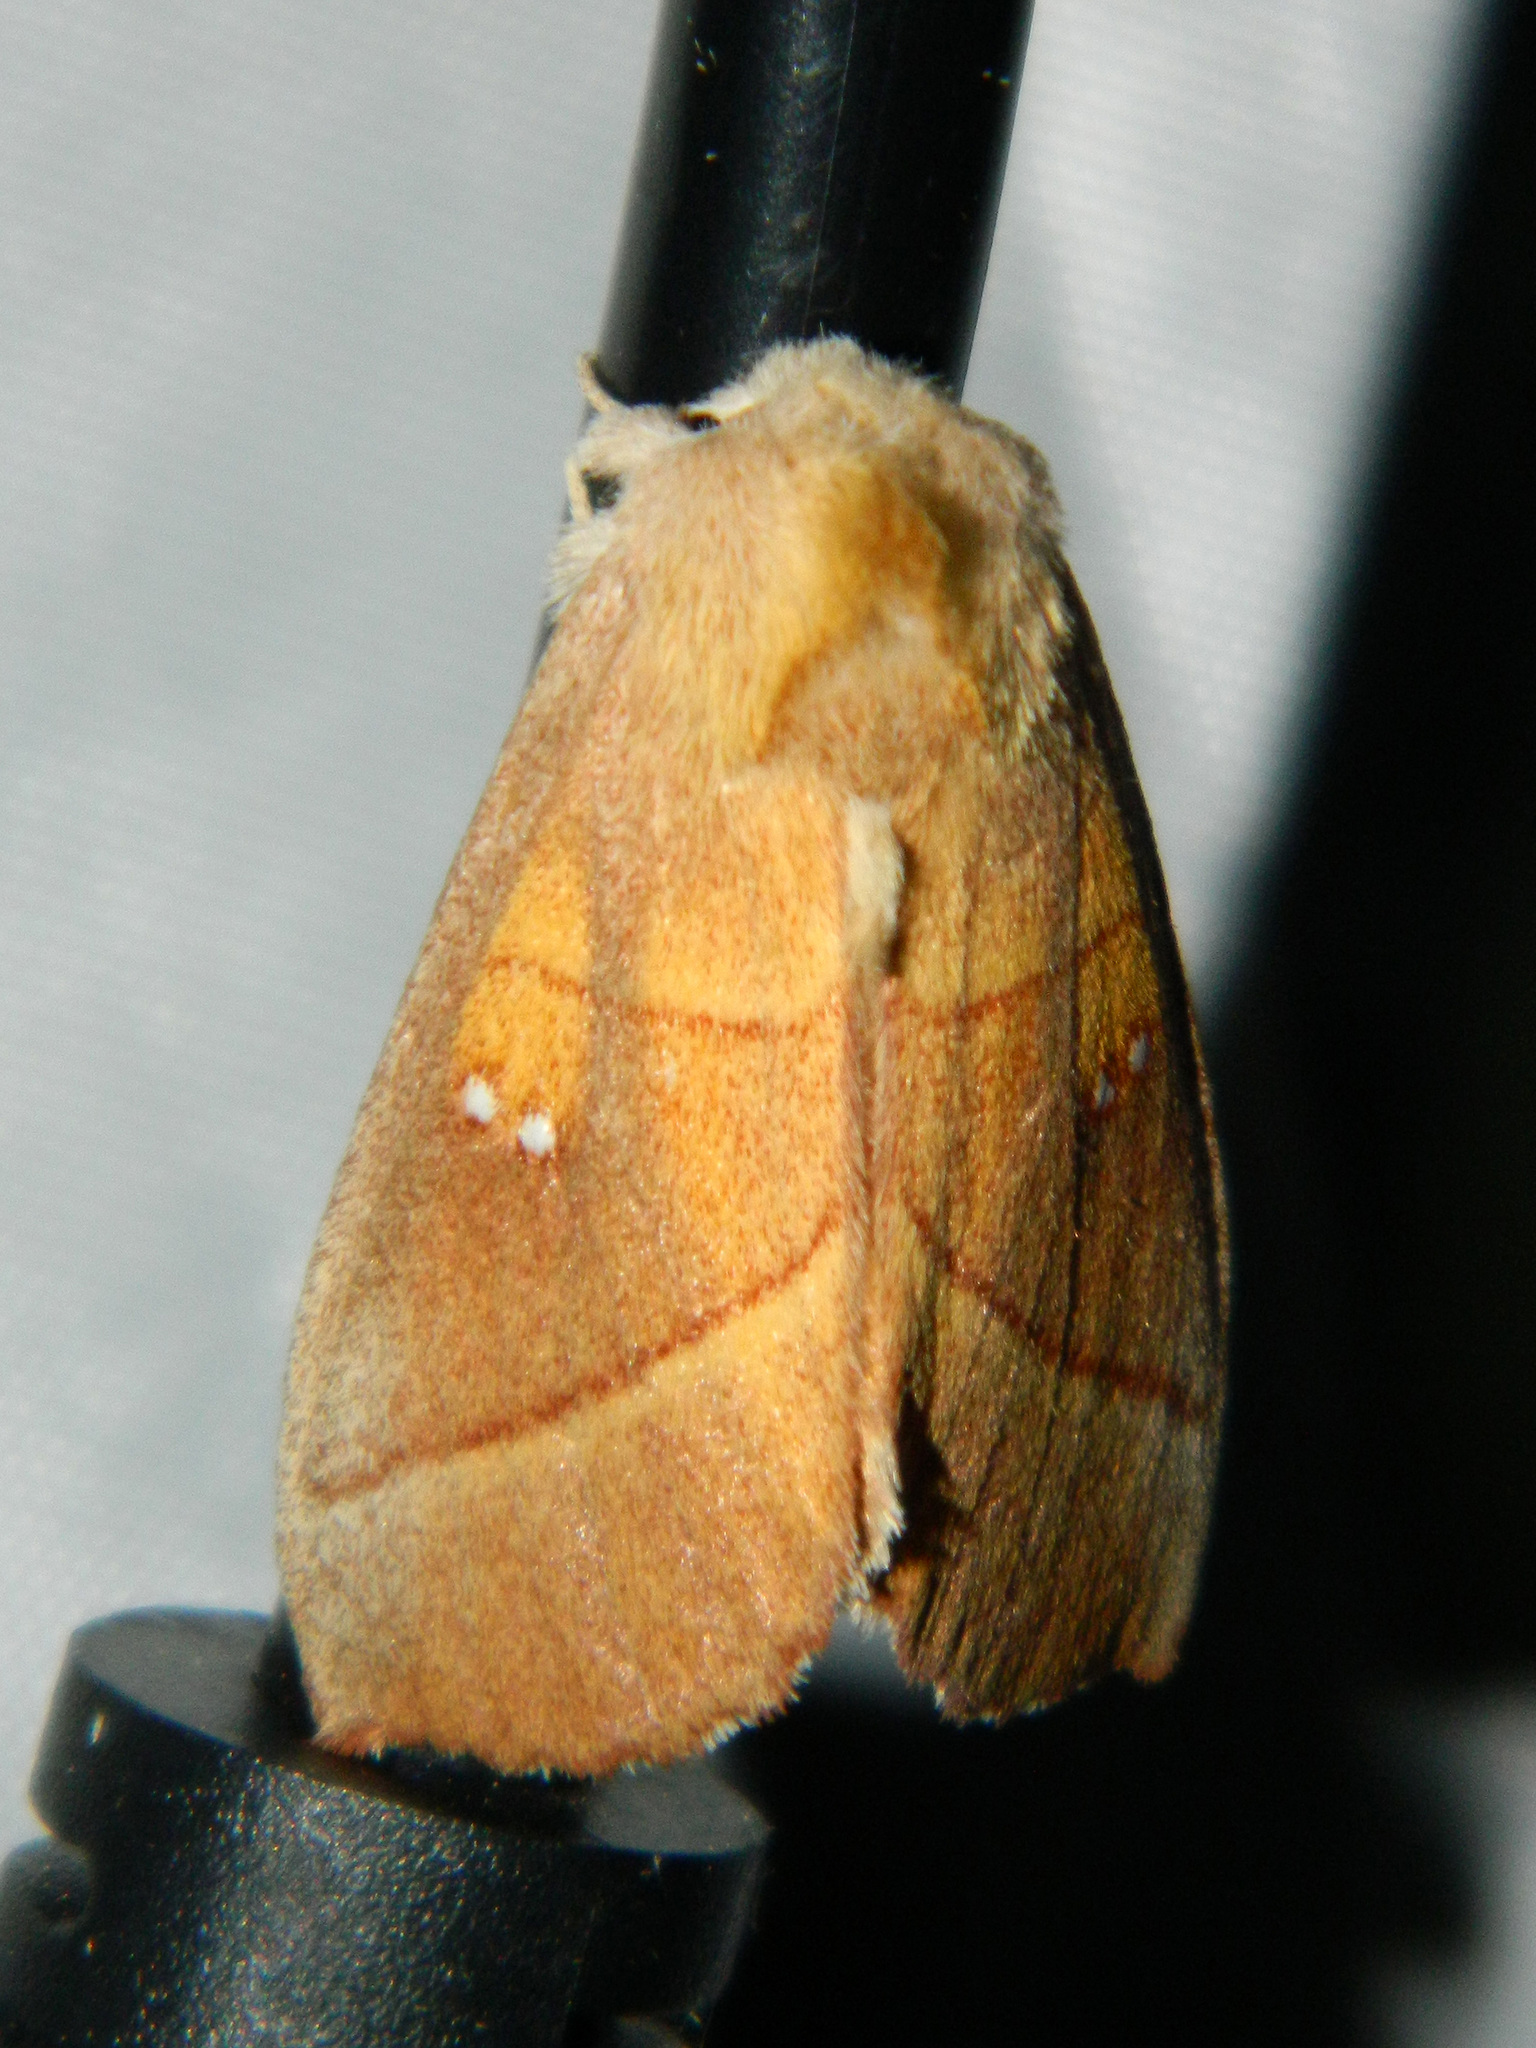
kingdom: Animalia
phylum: Arthropoda
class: Insecta
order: Lepidoptera
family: Notodontidae
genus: Nadata
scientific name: Nadata gibbosa
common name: White-dotted prominent
